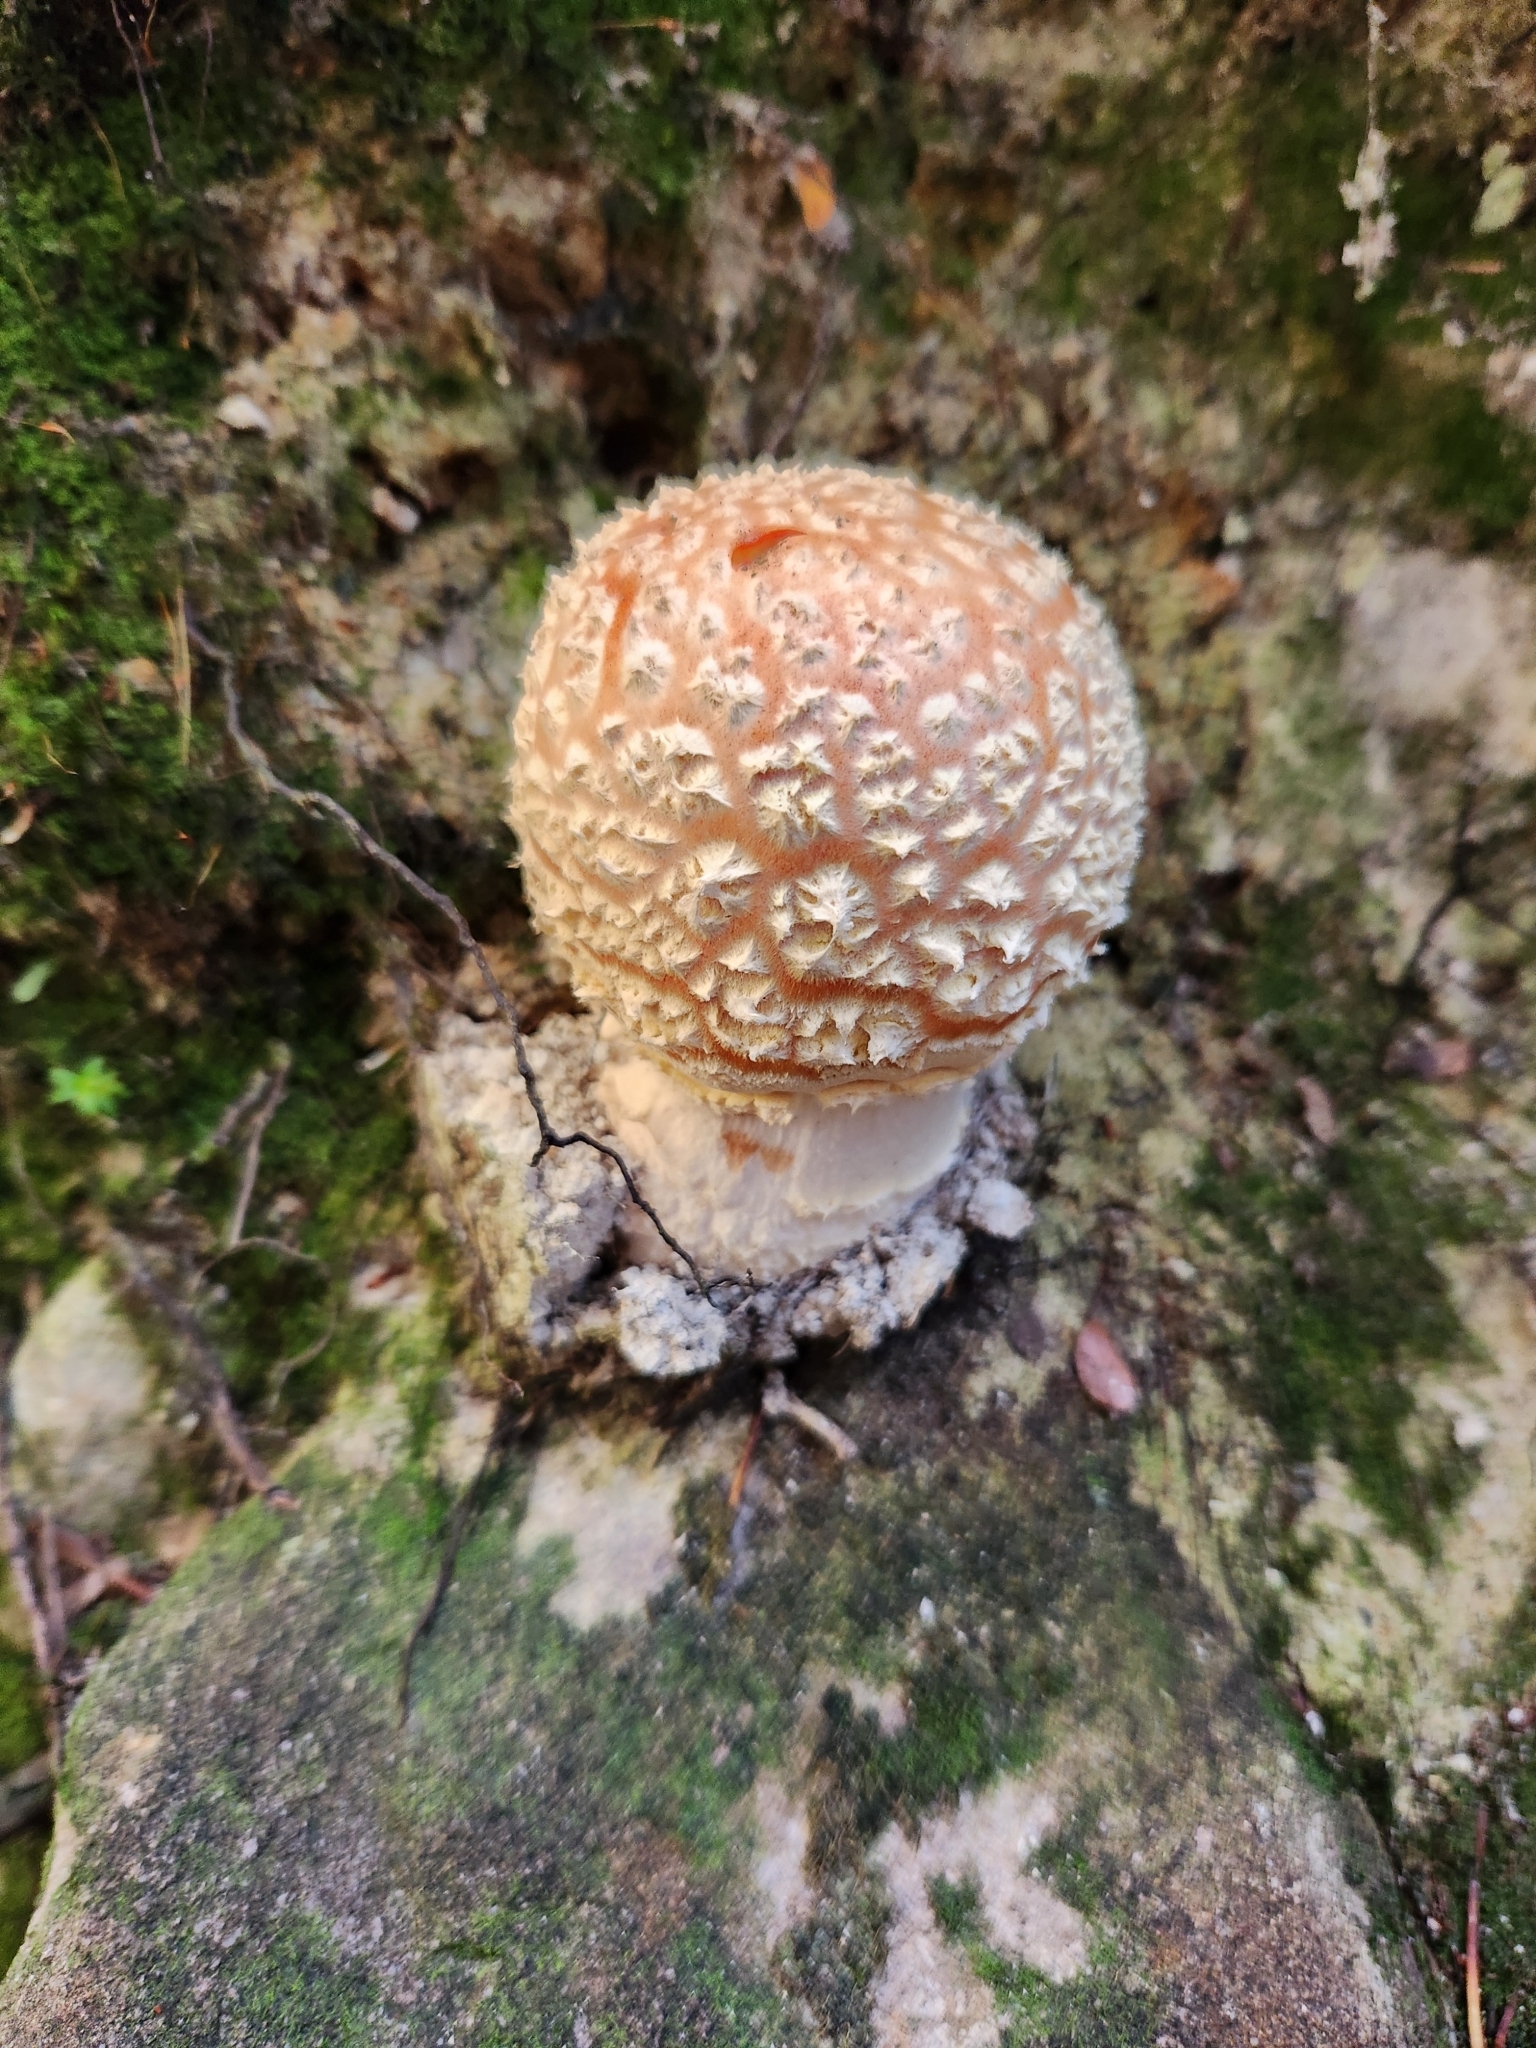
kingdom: Fungi
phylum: Basidiomycota
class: Agaricomycetes
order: Agaricales
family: Amanitaceae
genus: Amanita
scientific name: Amanita muscaria
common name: Fly agaric
